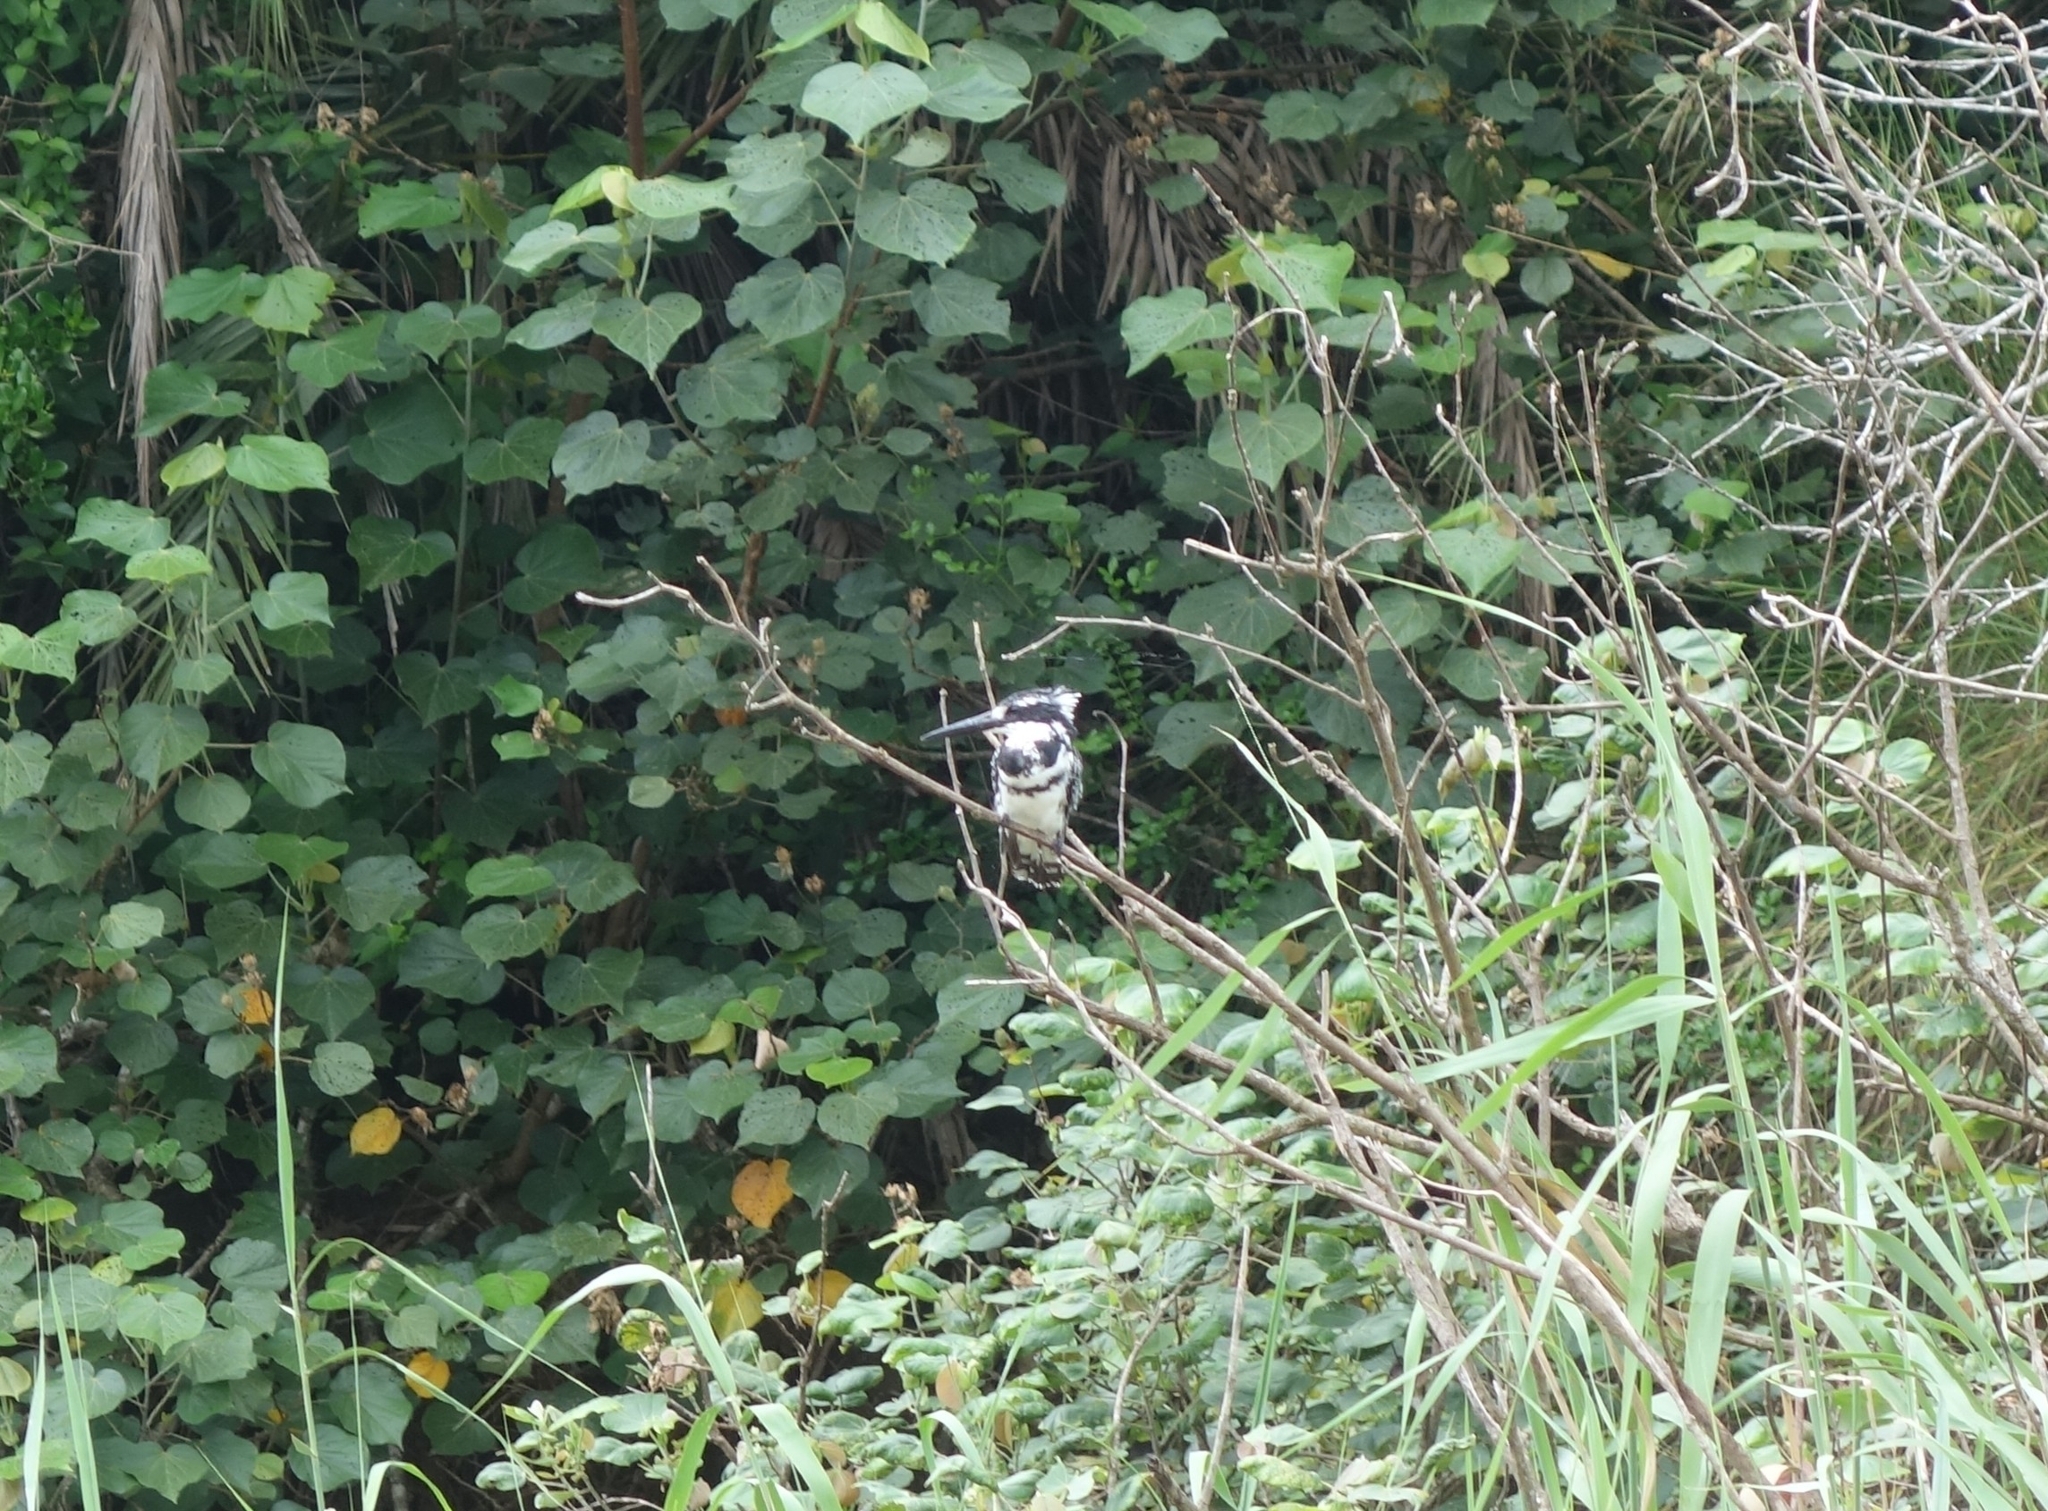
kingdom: Animalia
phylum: Chordata
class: Aves
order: Coraciiformes
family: Alcedinidae
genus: Ceryle
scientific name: Ceryle rudis
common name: Pied kingfisher
